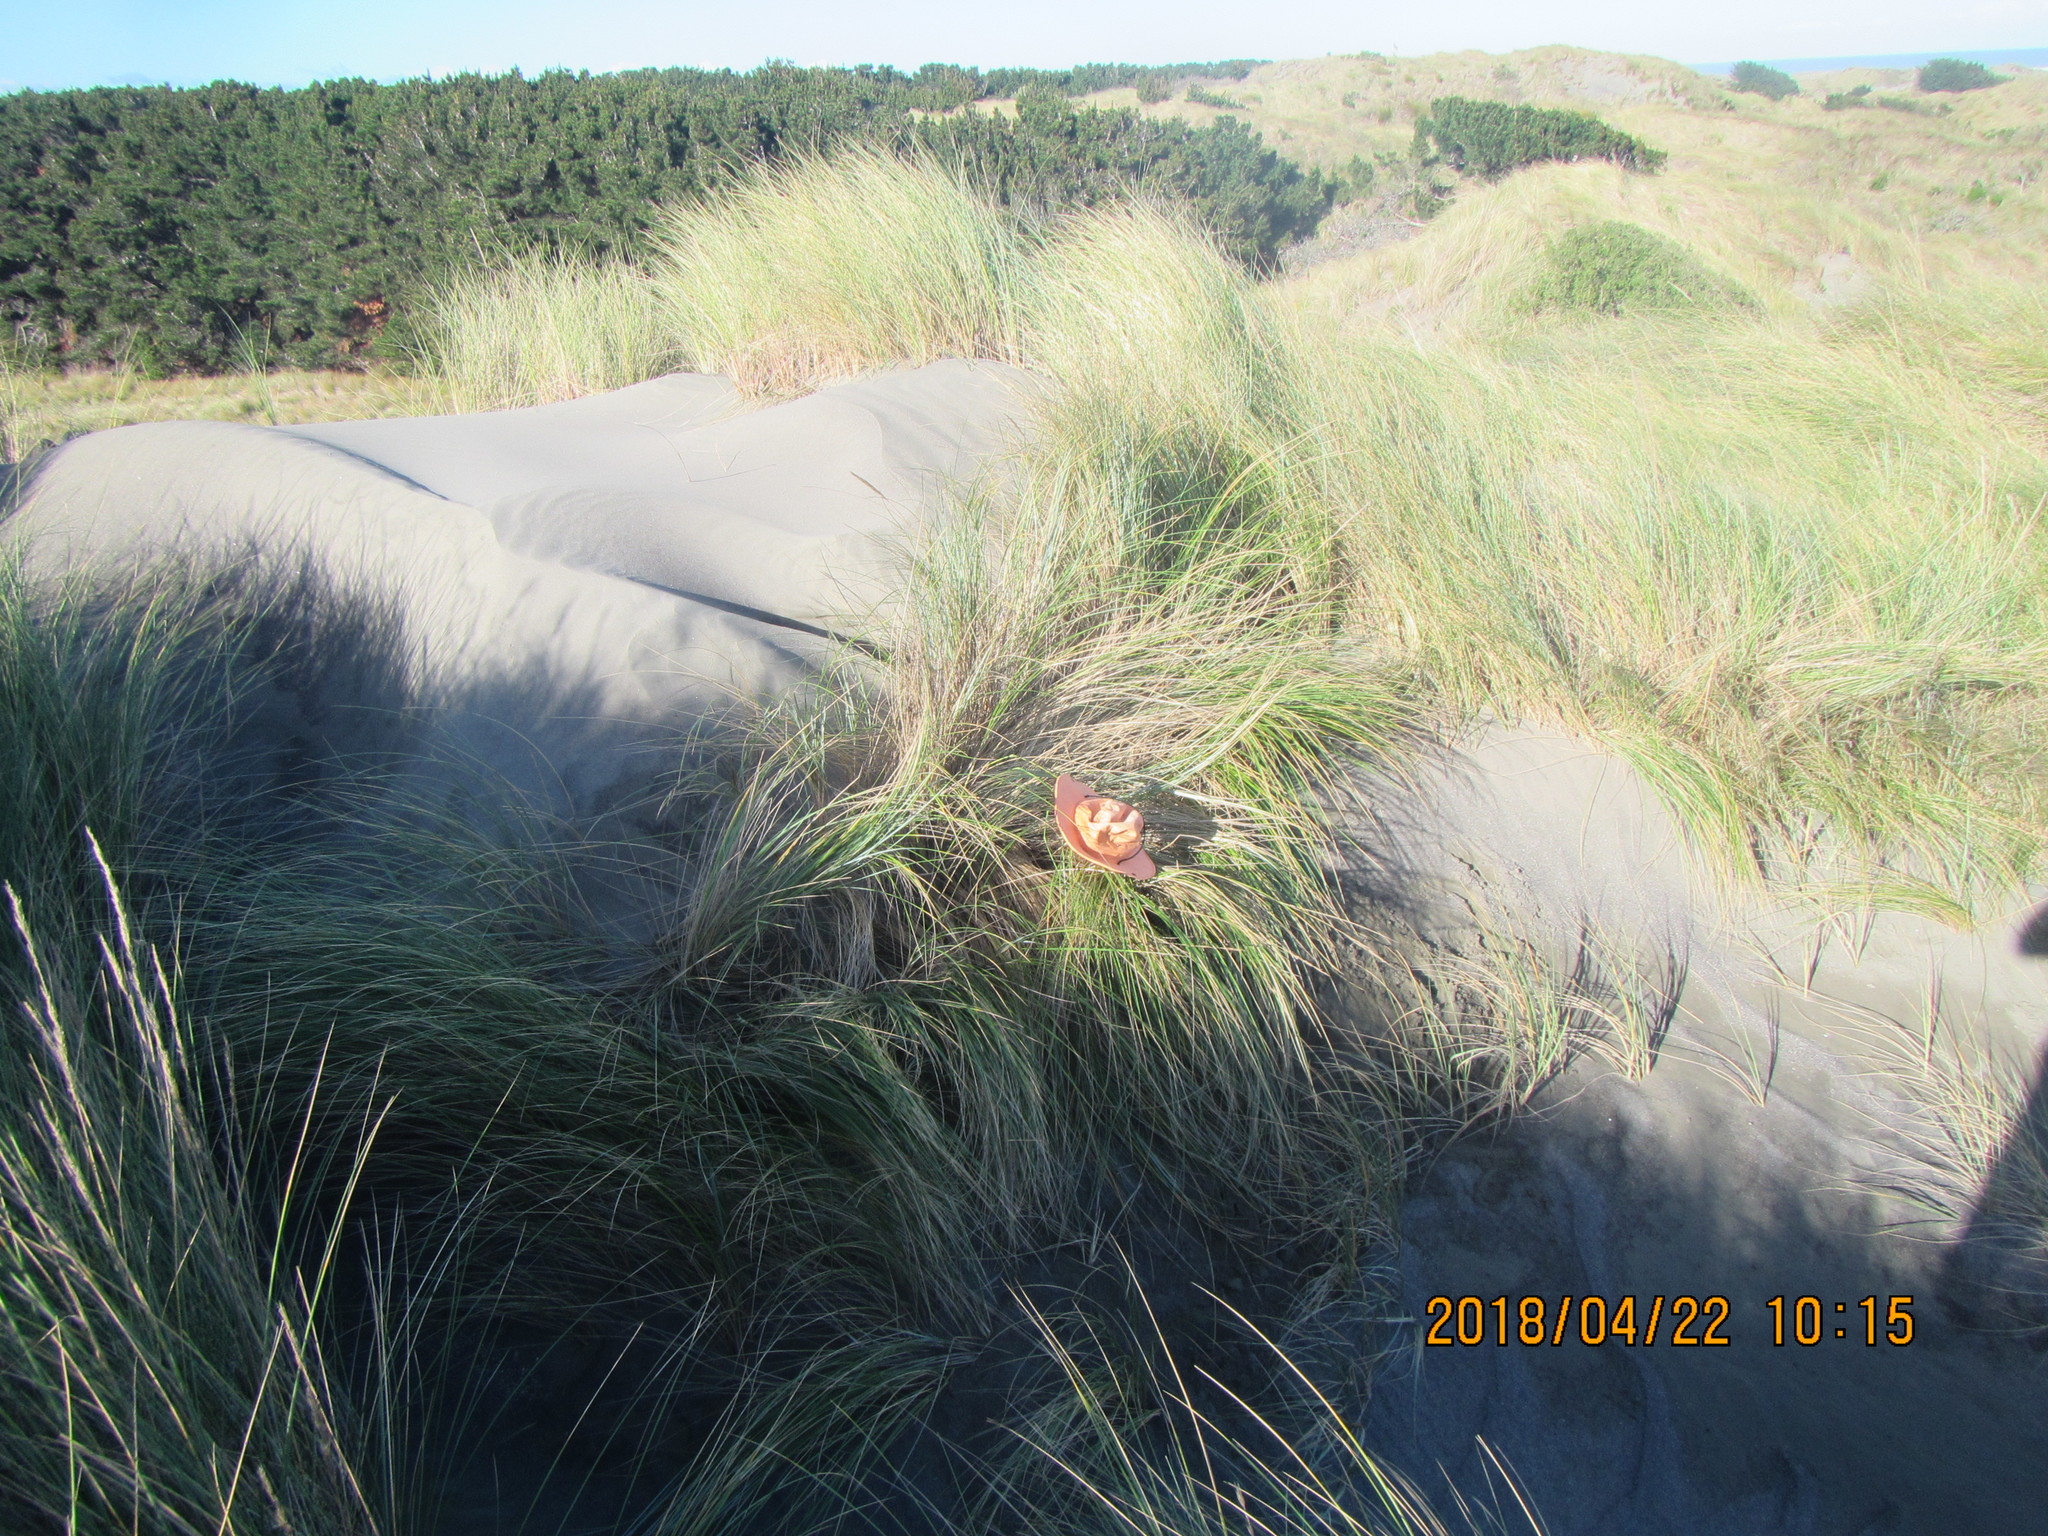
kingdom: Animalia
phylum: Arthropoda
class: Arachnida
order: Araneae
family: Thomisidae
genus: Sidymella
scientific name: Sidymella trapezia
